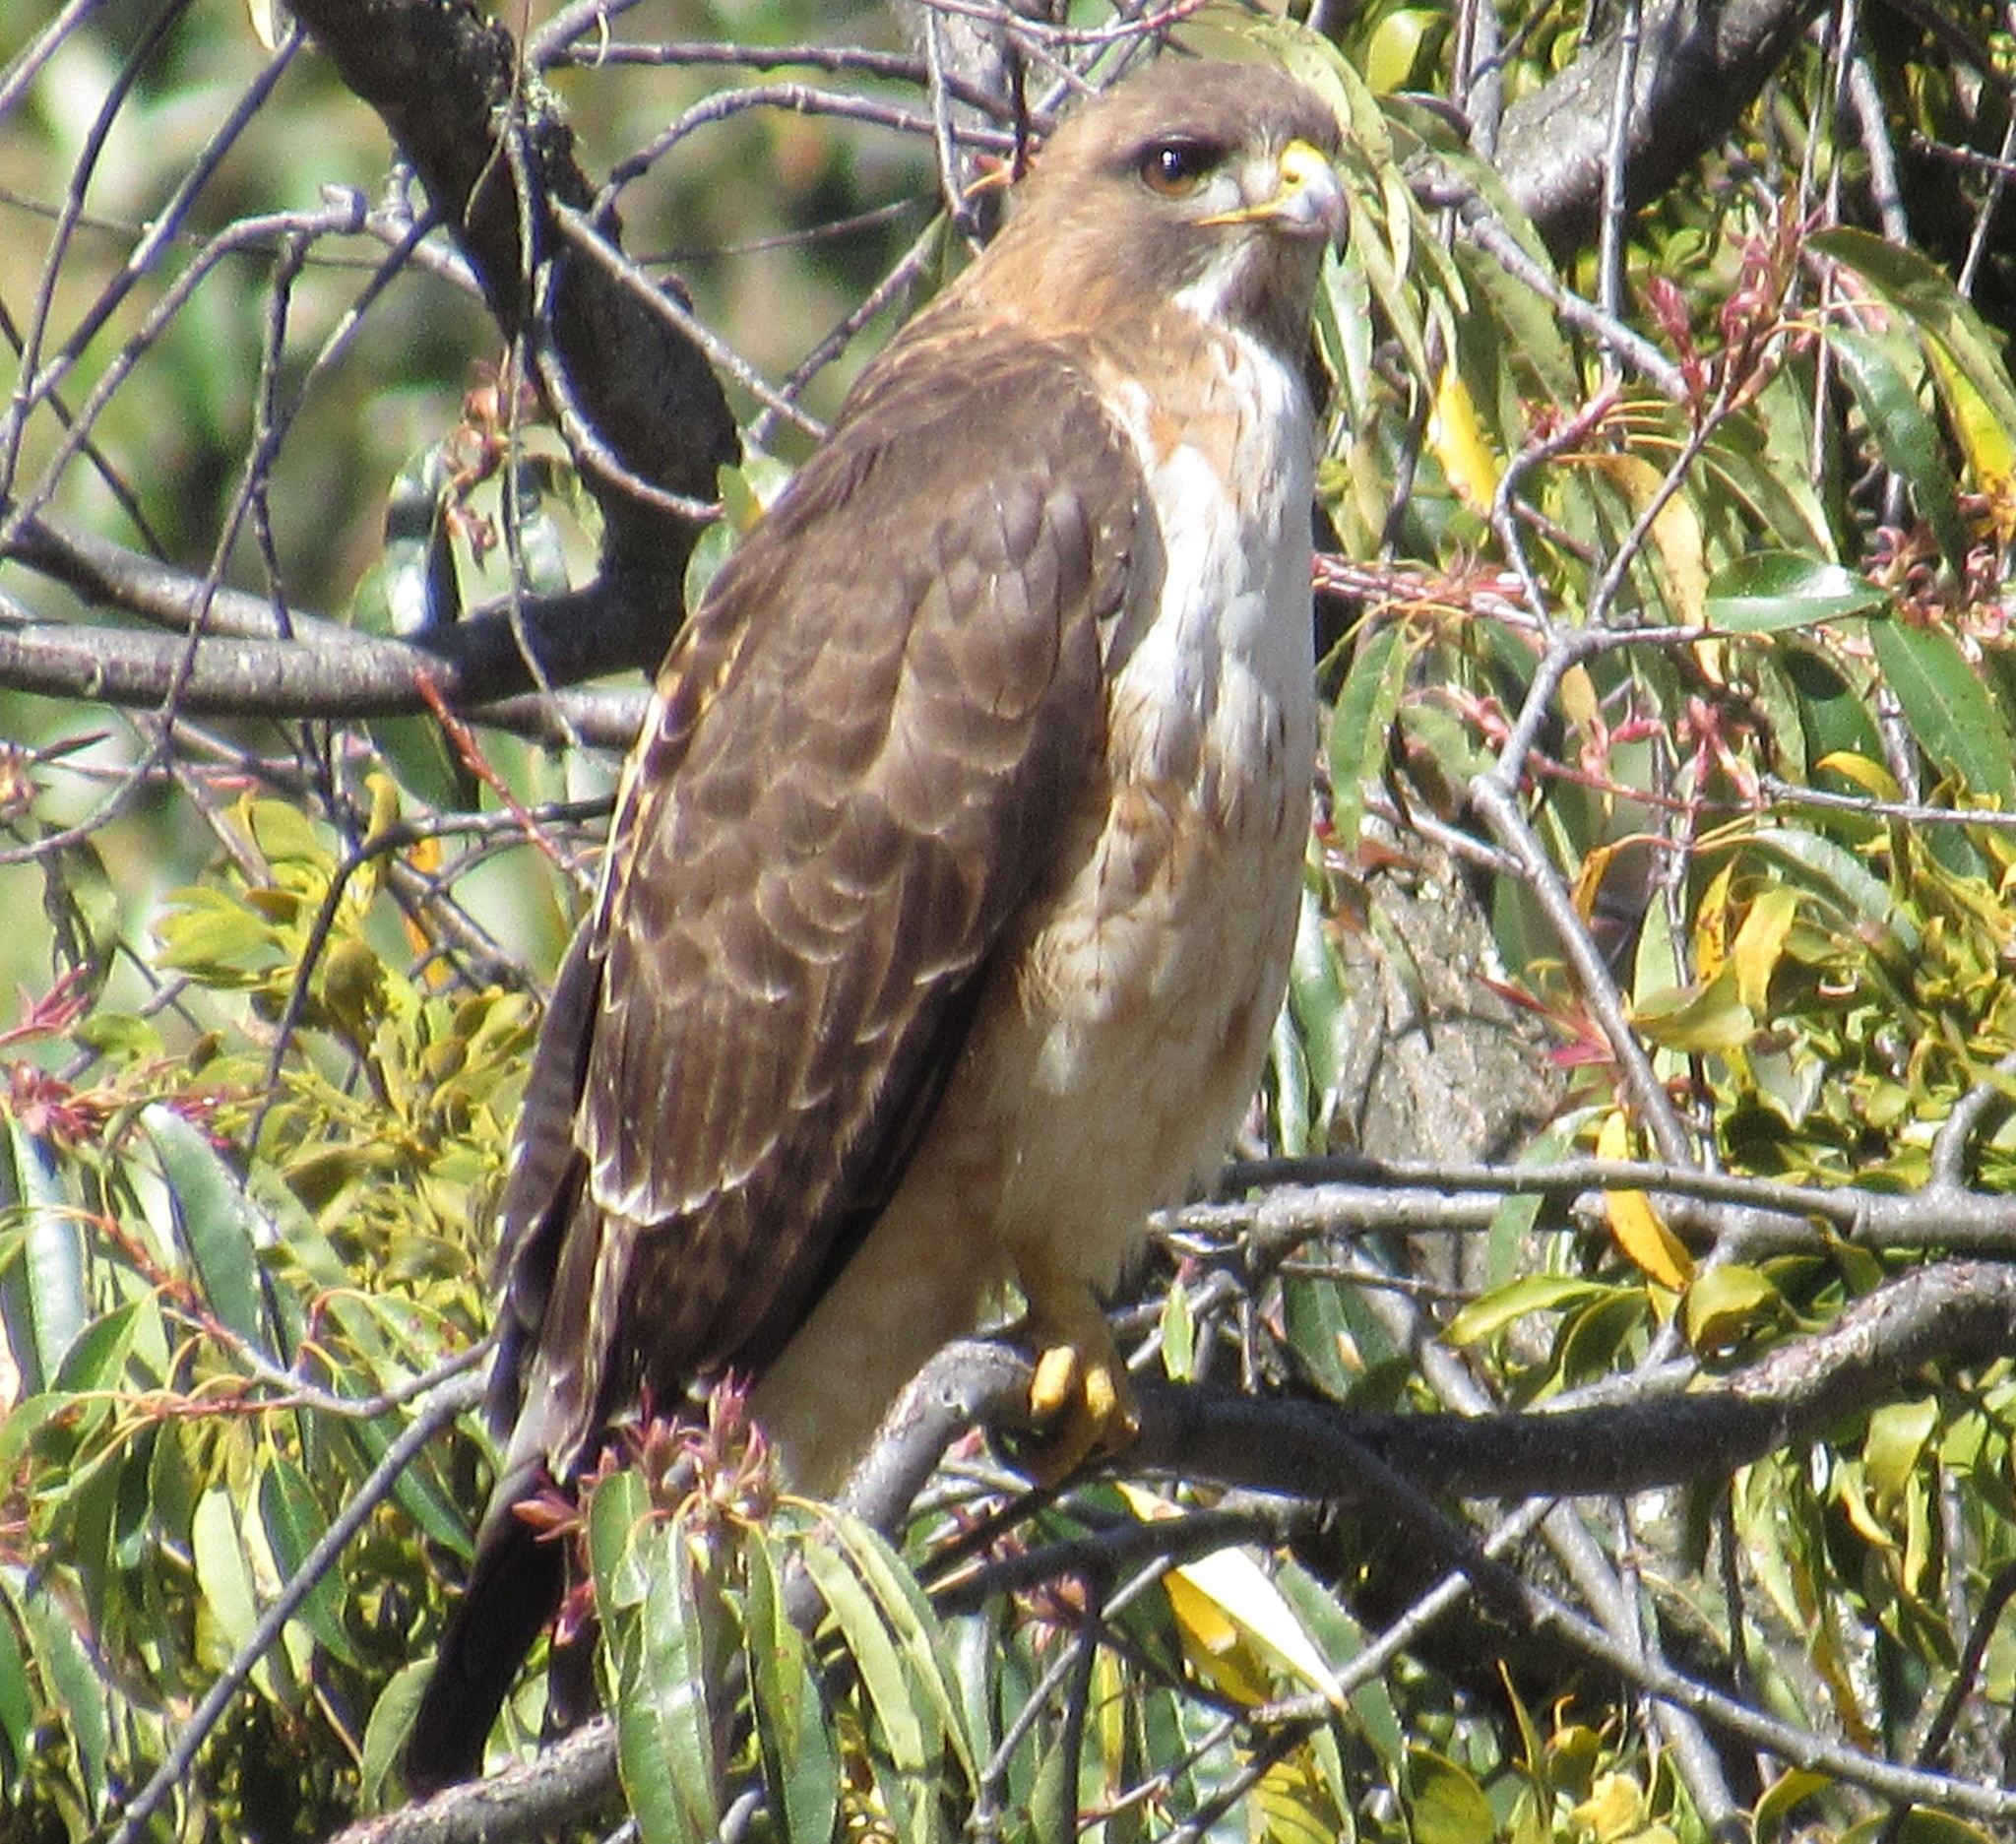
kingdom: Animalia
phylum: Chordata
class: Aves
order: Accipitriformes
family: Accipitridae
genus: Buteo
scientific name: Buteo jamaicensis
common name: Red-tailed hawk
